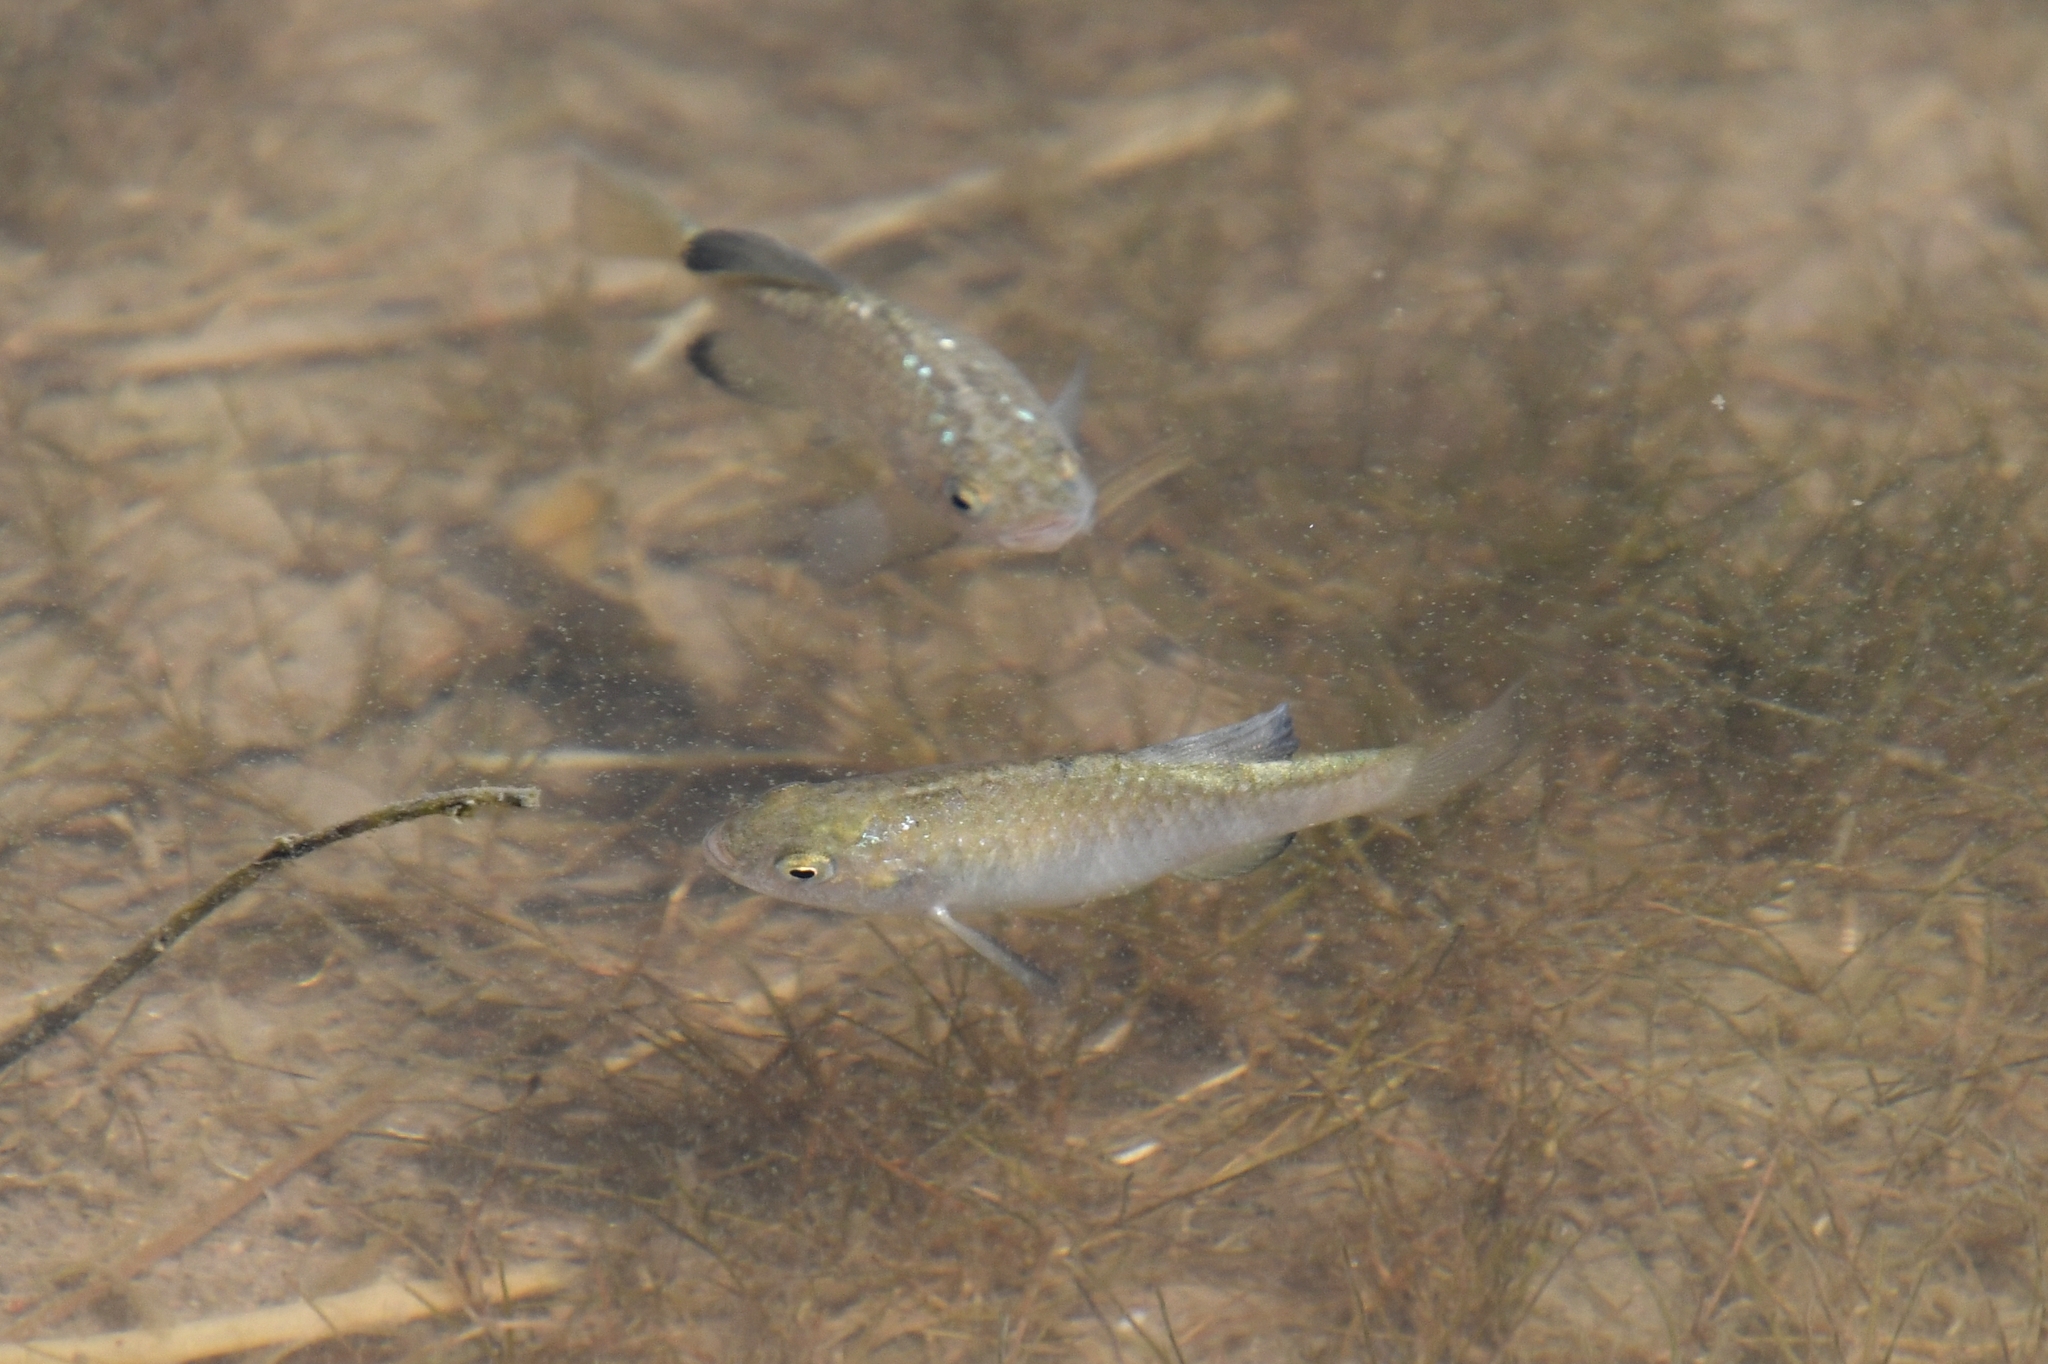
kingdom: Animalia
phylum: Chordata
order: Cyprinodontiformes
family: Cyprinodontidae
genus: Cyprinodon
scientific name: Cyprinodon macularius
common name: Desert pupfish
